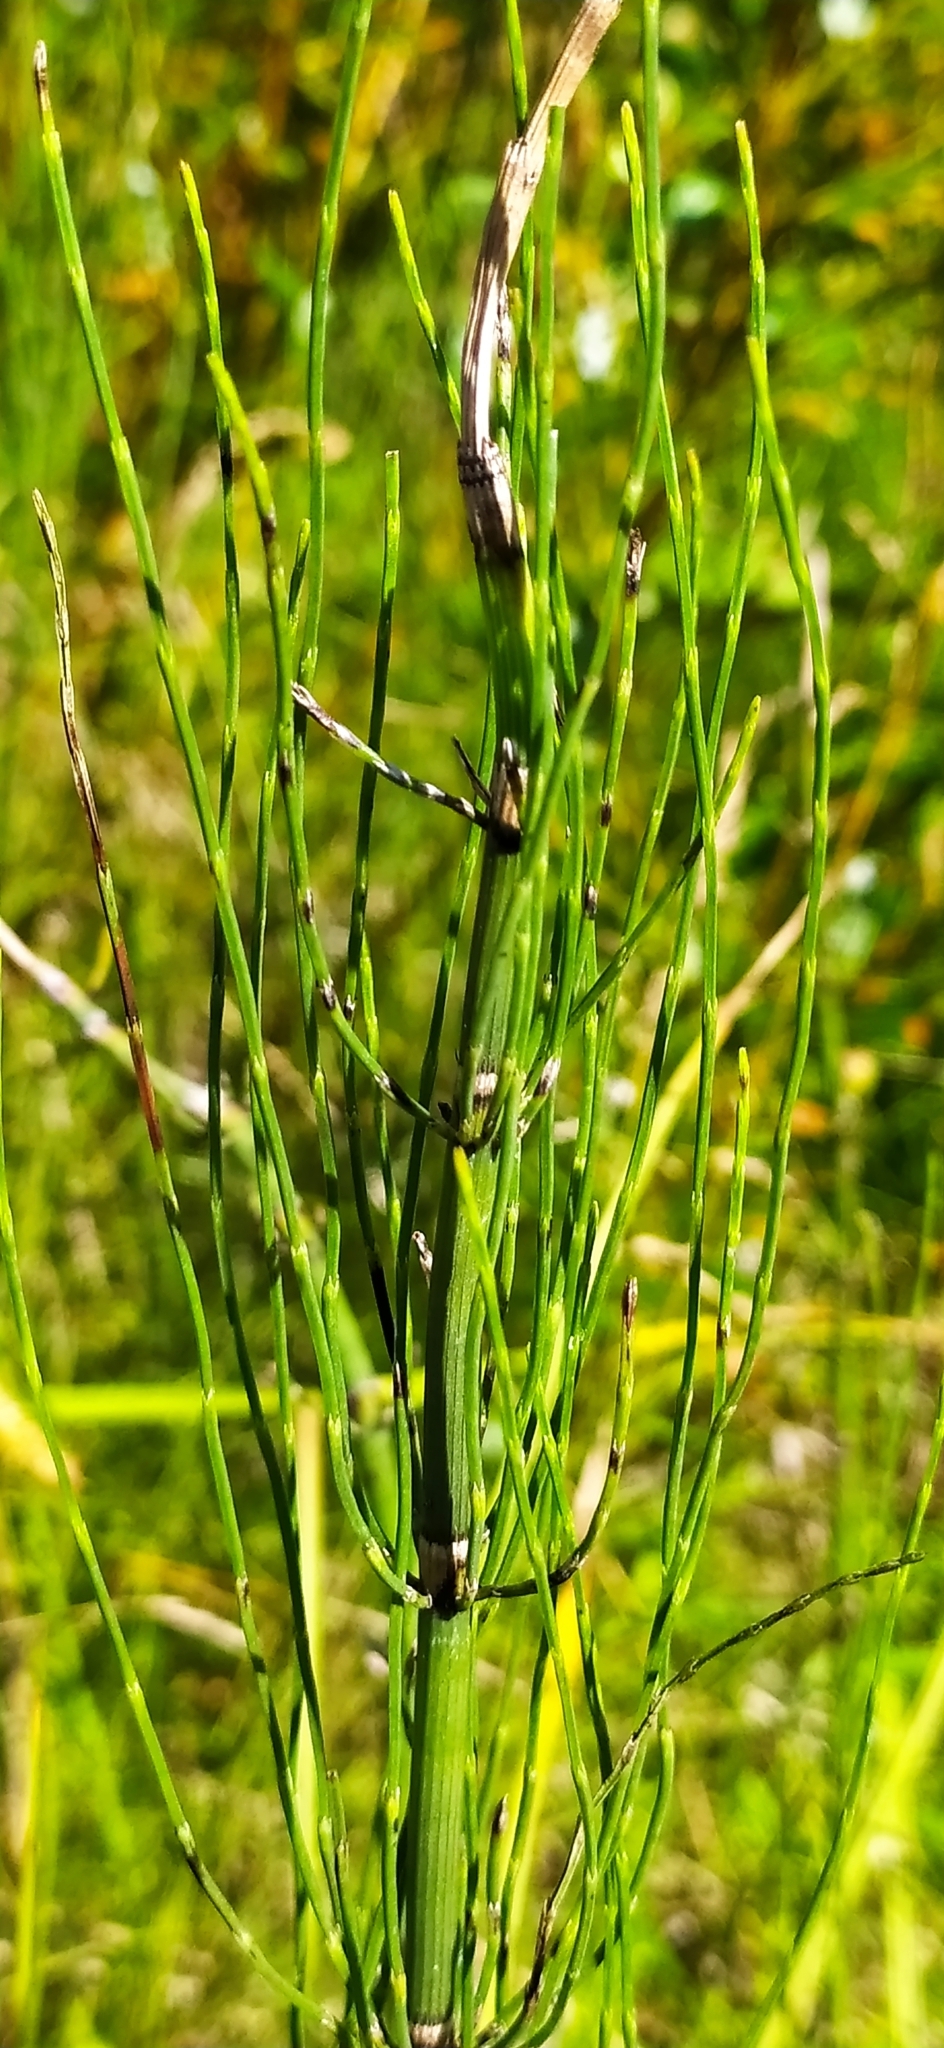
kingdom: Plantae
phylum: Tracheophyta
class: Polypodiopsida
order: Equisetales
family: Equisetaceae
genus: Equisetum
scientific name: Equisetum fluviatile
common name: Water horsetail
